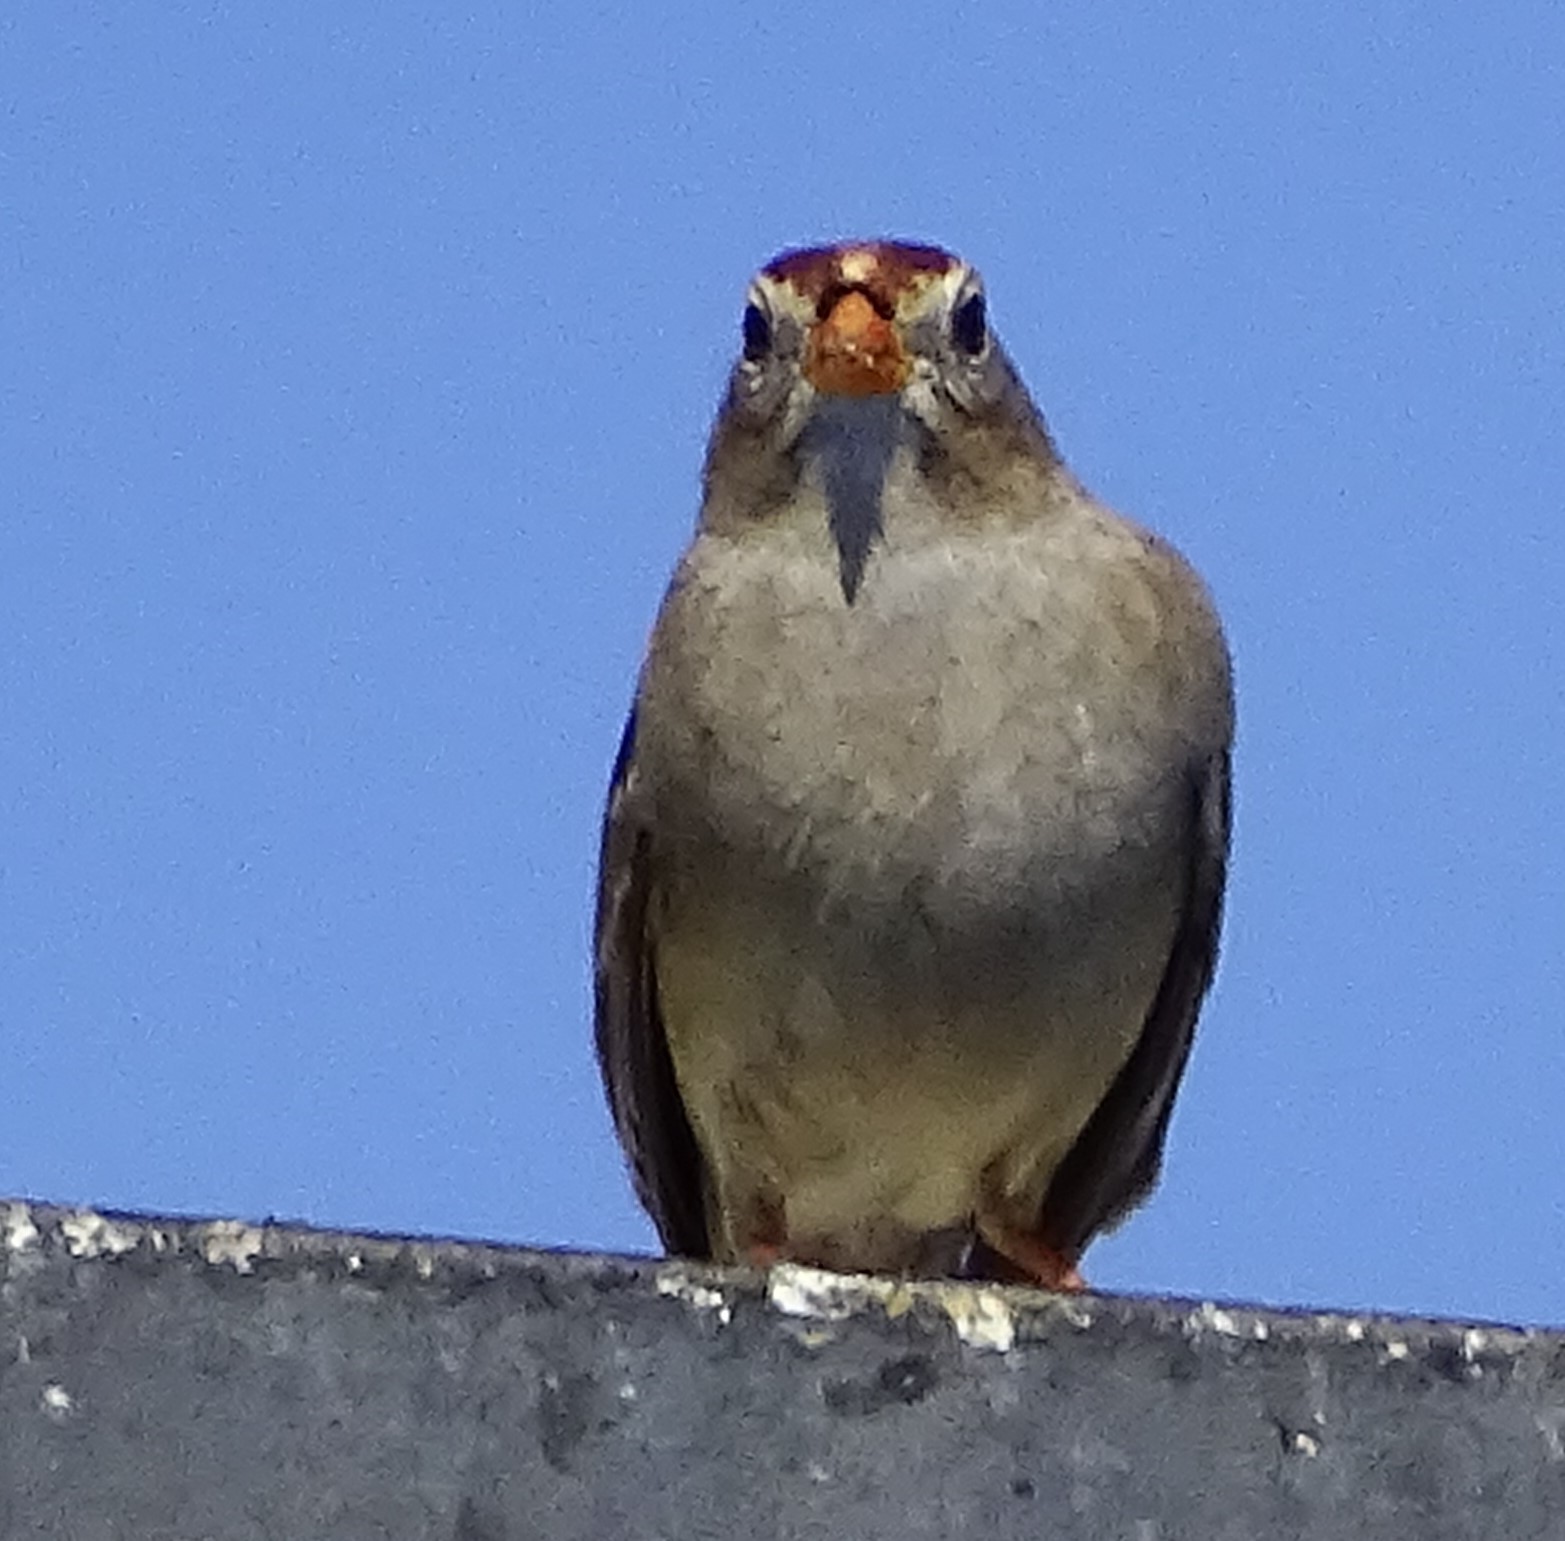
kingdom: Animalia
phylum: Chordata
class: Aves
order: Passeriformes
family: Passerellidae
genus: Zonotrichia
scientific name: Zonotrichia leucophrys
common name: White-crowned sparrow
